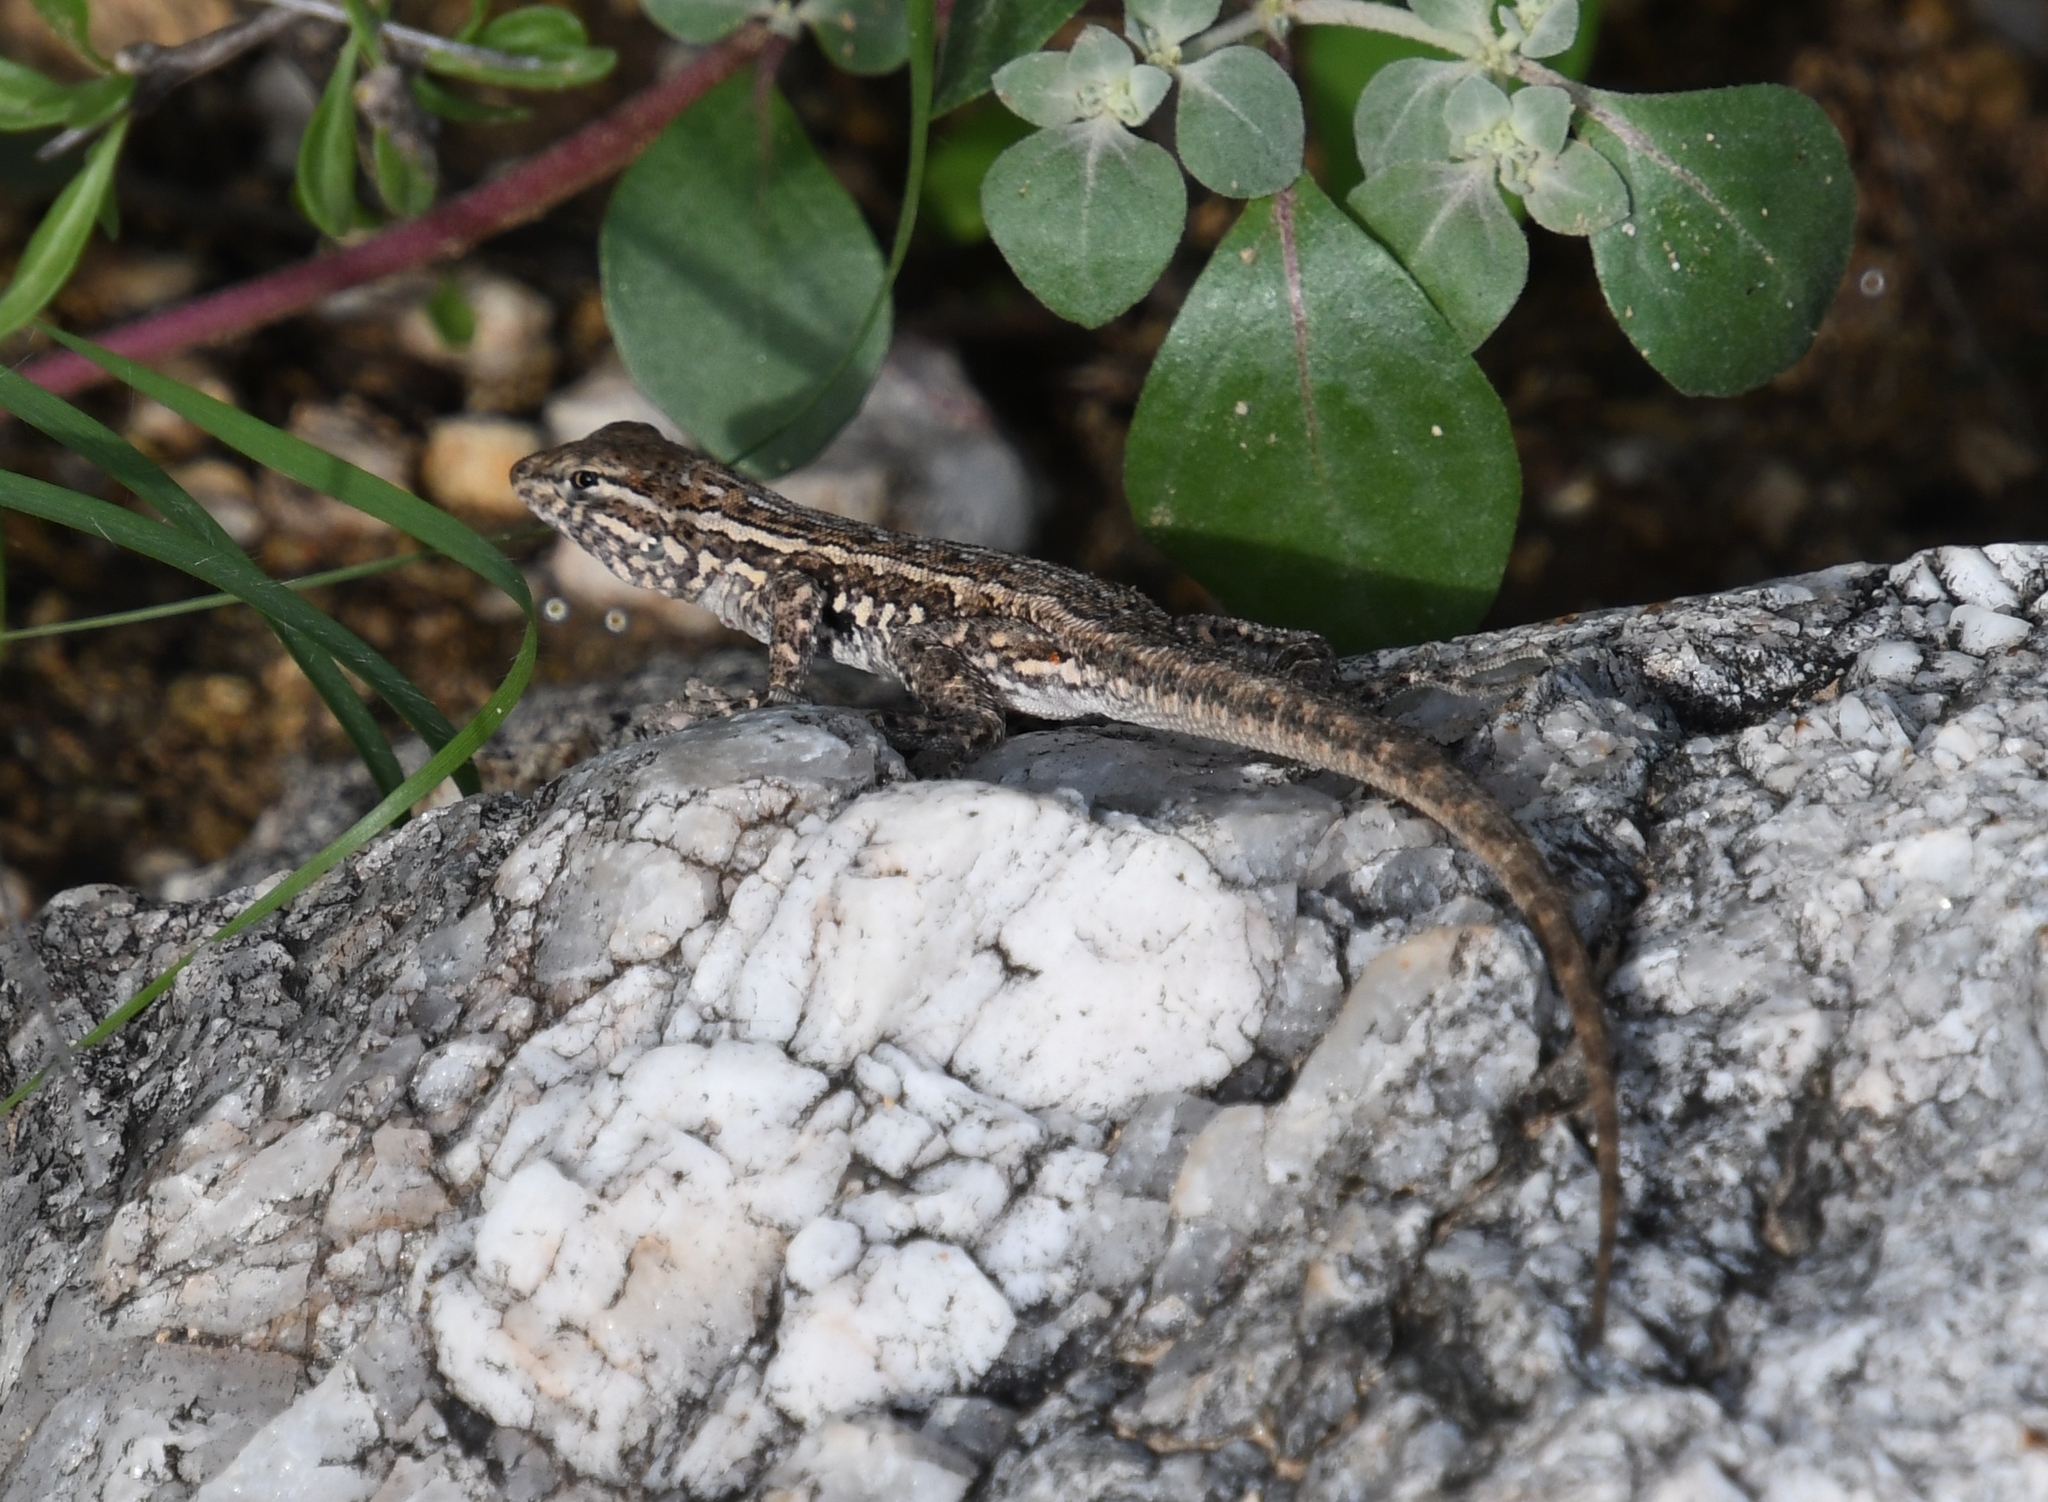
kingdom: Animalia
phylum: Chordata
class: Squamata
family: Phrynosomatidae
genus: Uta
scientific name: Uta stansburiana
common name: Side-blotched lizard
